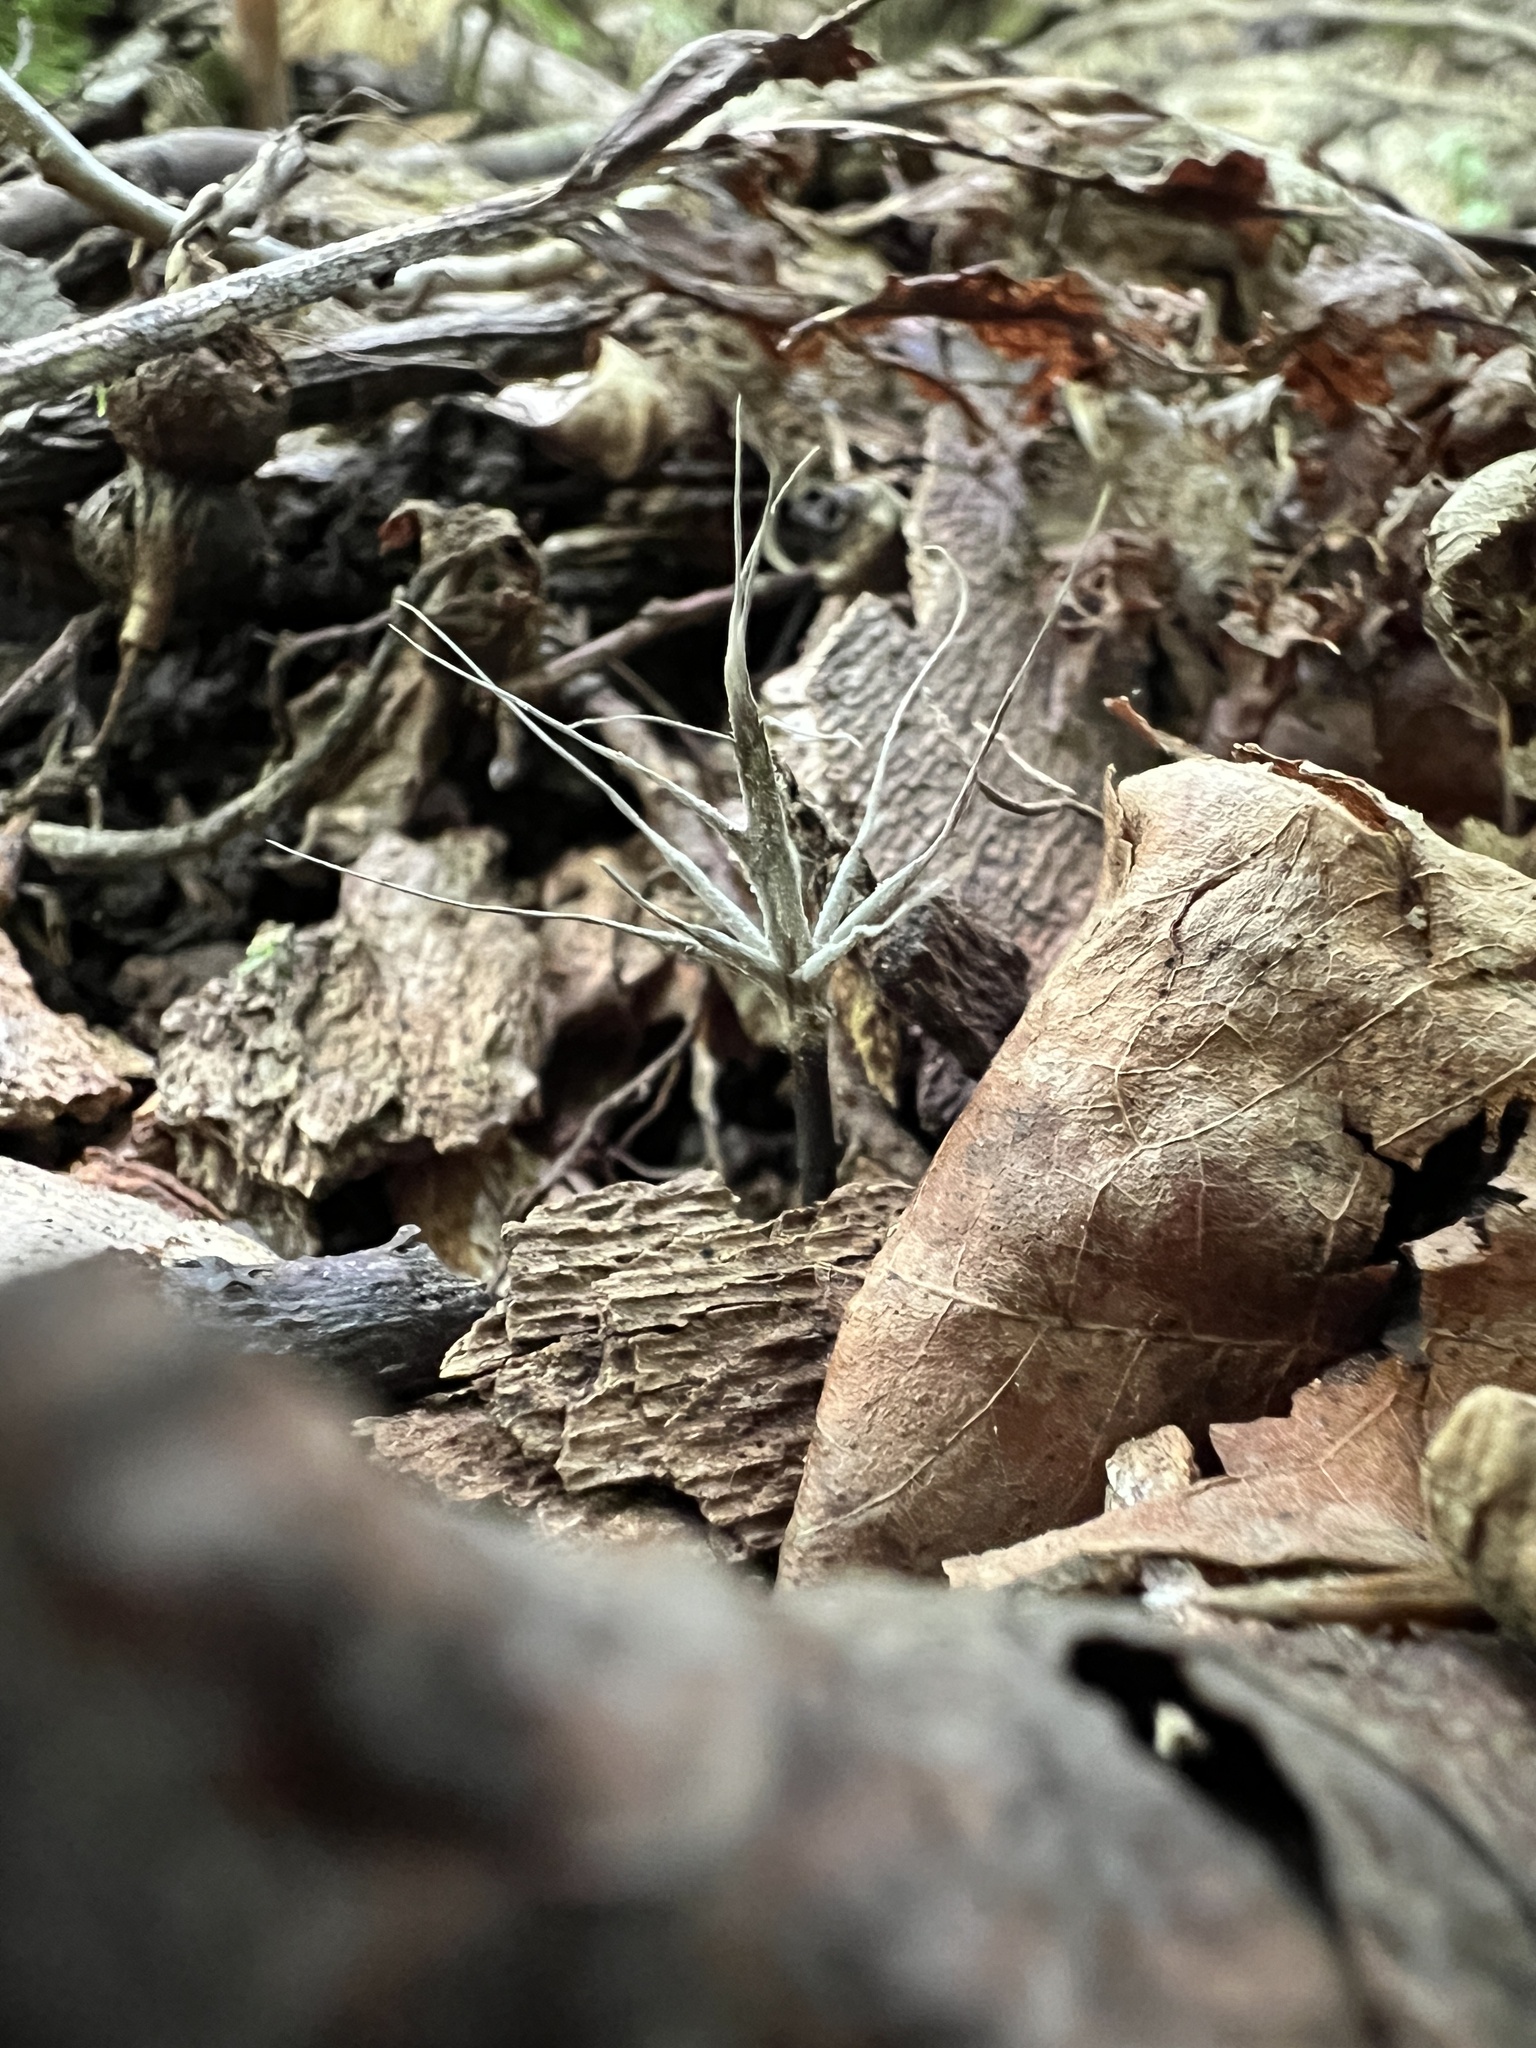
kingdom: Fungi
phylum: Ascomycota
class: Sordariomycetes
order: Xylariales
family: Xylariaceae
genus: Xylaria
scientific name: Xylaria tentaculata
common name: Fairy sparklers
